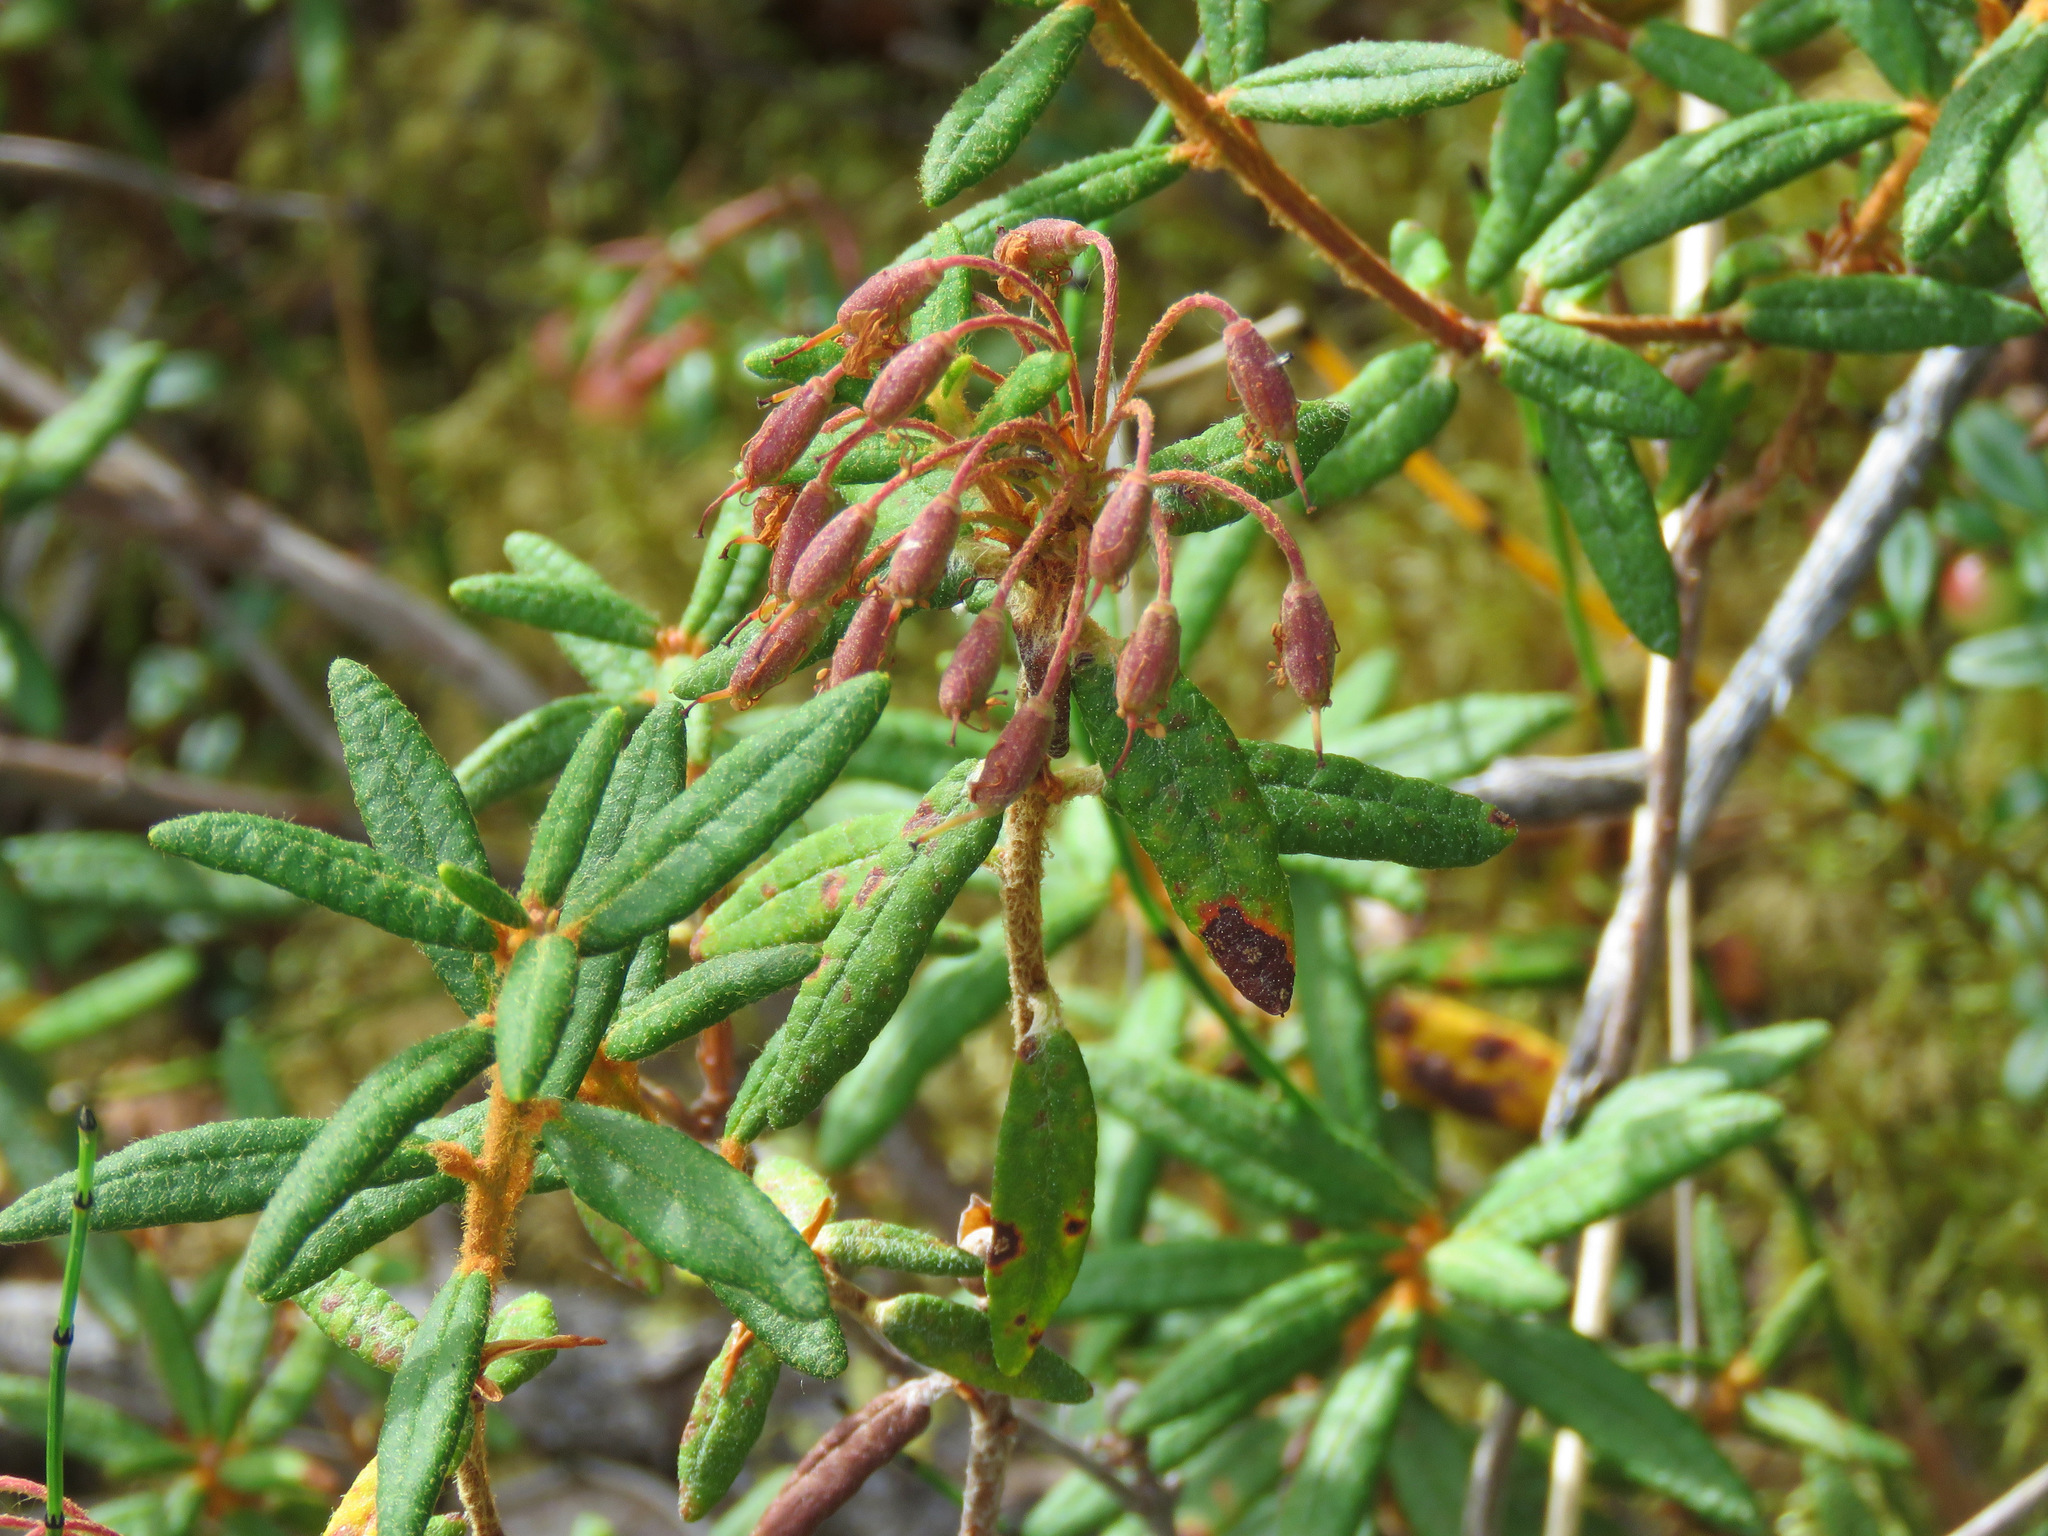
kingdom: Plantae
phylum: Tracheophyta
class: Magnoliopsida
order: Ericales
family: Ericaceae
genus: Rhododendron
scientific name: Rhododendron groenlandicum
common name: Bog labrador tea
